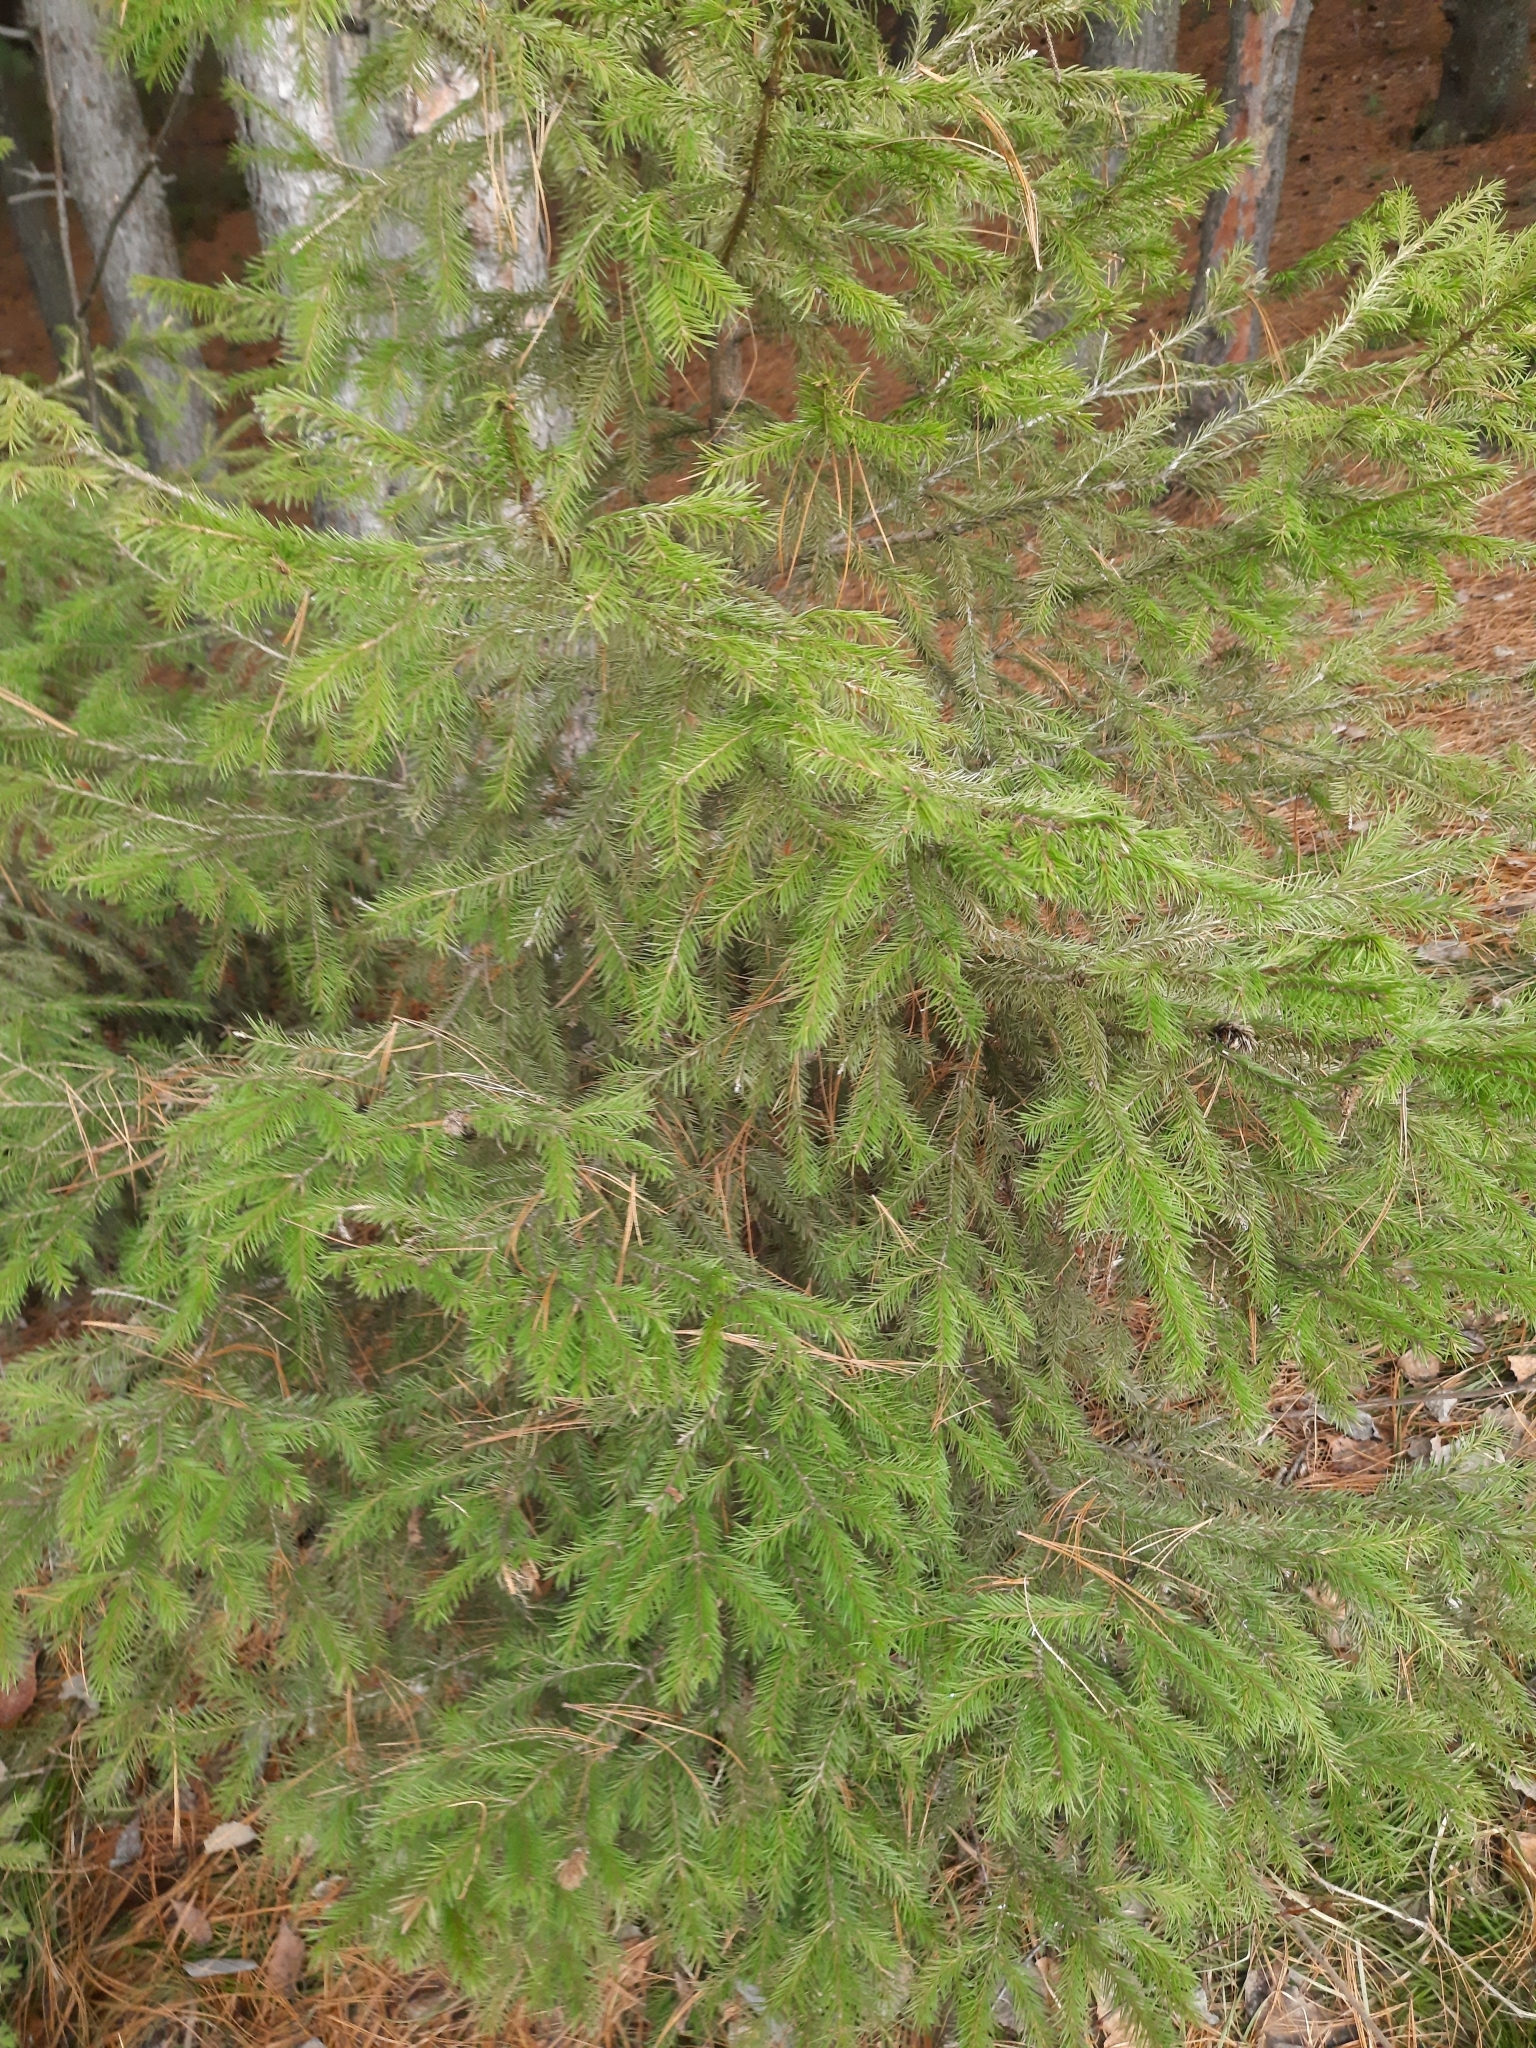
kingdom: Plantae
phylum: Tracheophyta
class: Pinopsida
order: Pinales
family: Pinaceae
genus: Abies
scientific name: Abies sibirica
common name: Siberian fir
